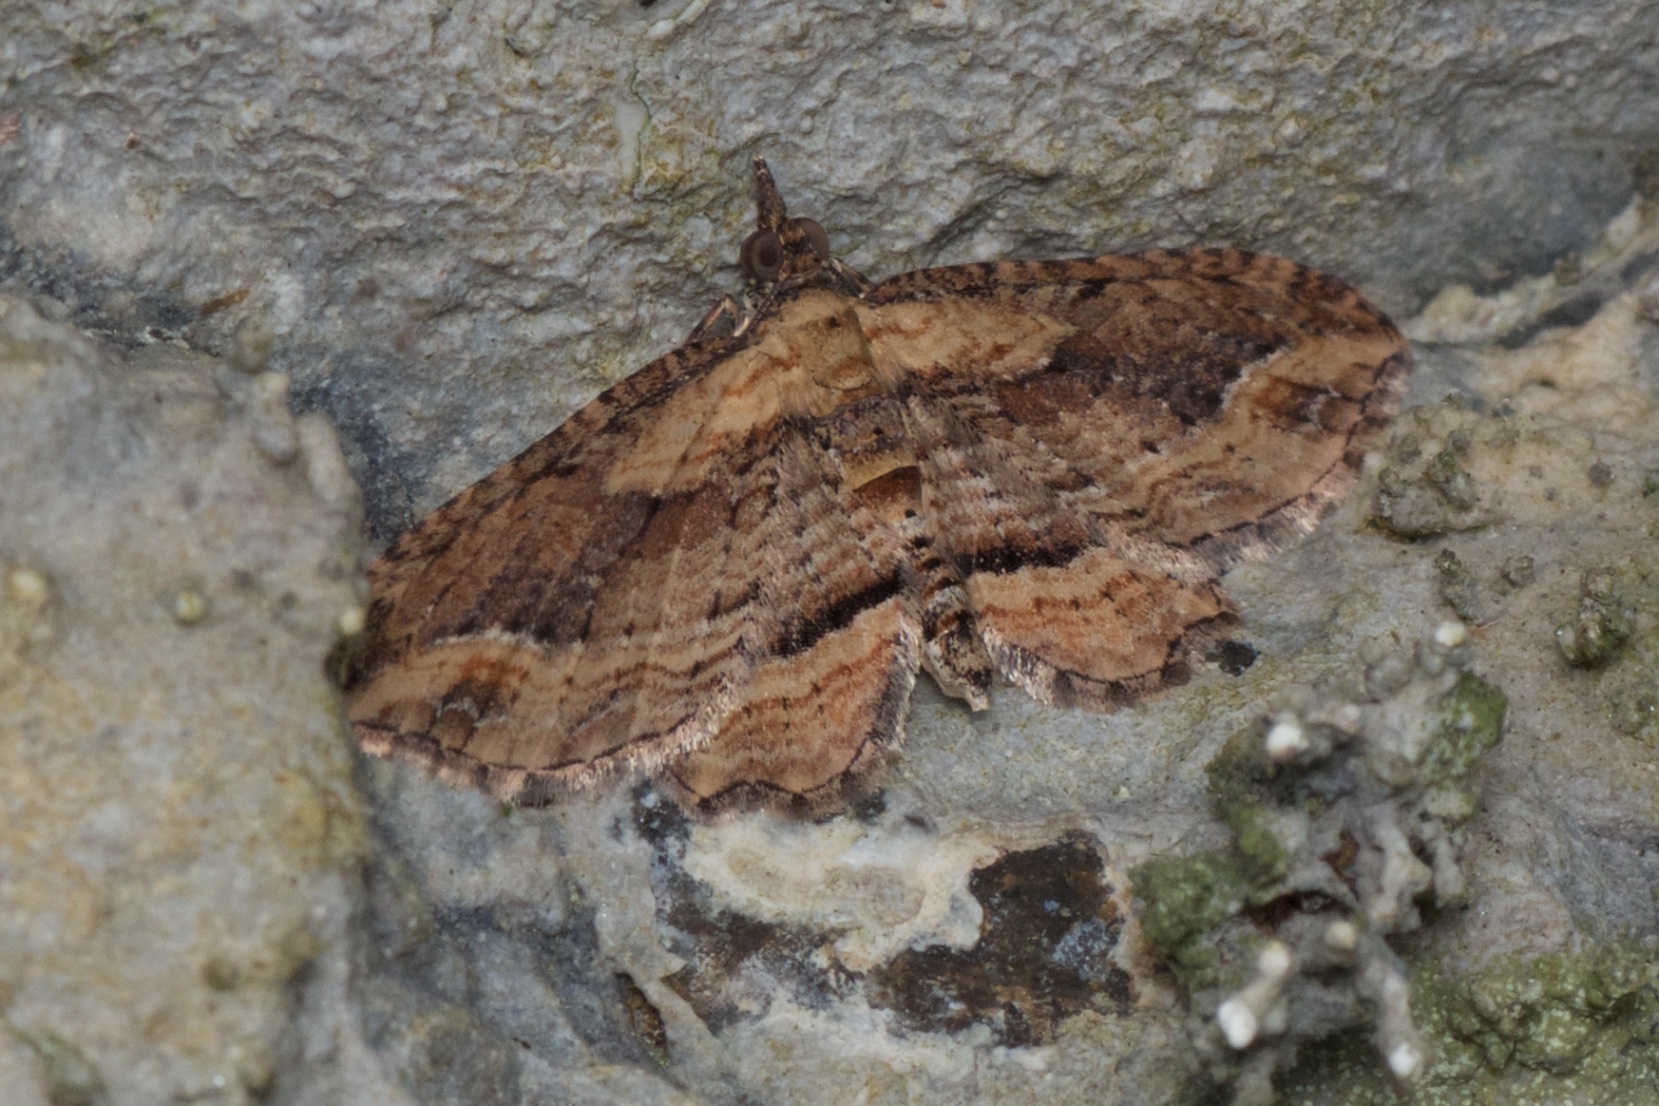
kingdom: Animalia
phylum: Arthropoda
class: Insecta
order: Lepidoptera
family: Geometridae
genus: Chloroclystis
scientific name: Chloroclystis filata
